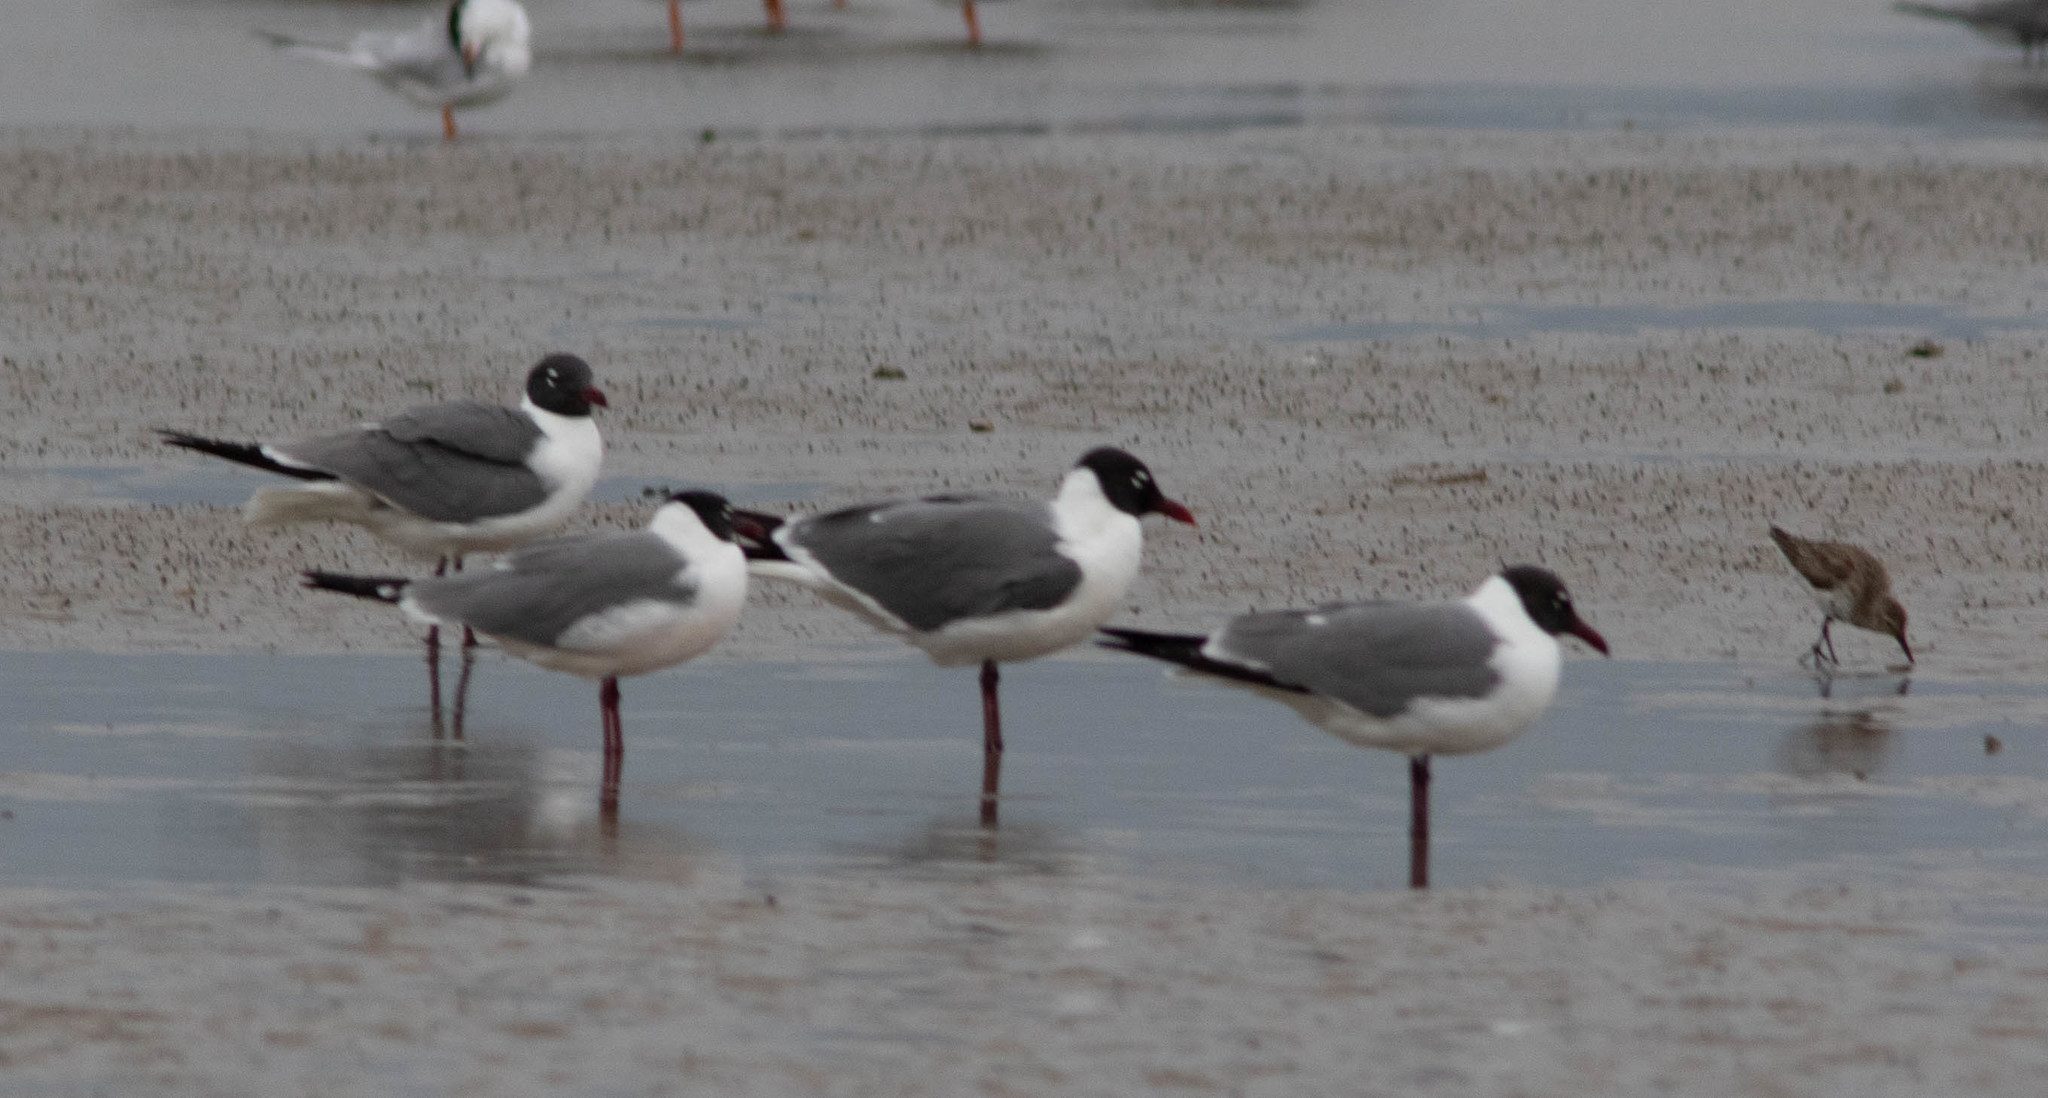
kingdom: Animalia
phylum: Chordata
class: Aves
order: Charadriiformes
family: Laridae
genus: Leucophaeus
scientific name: Leucophaeus atricilla
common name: Laughing gull
